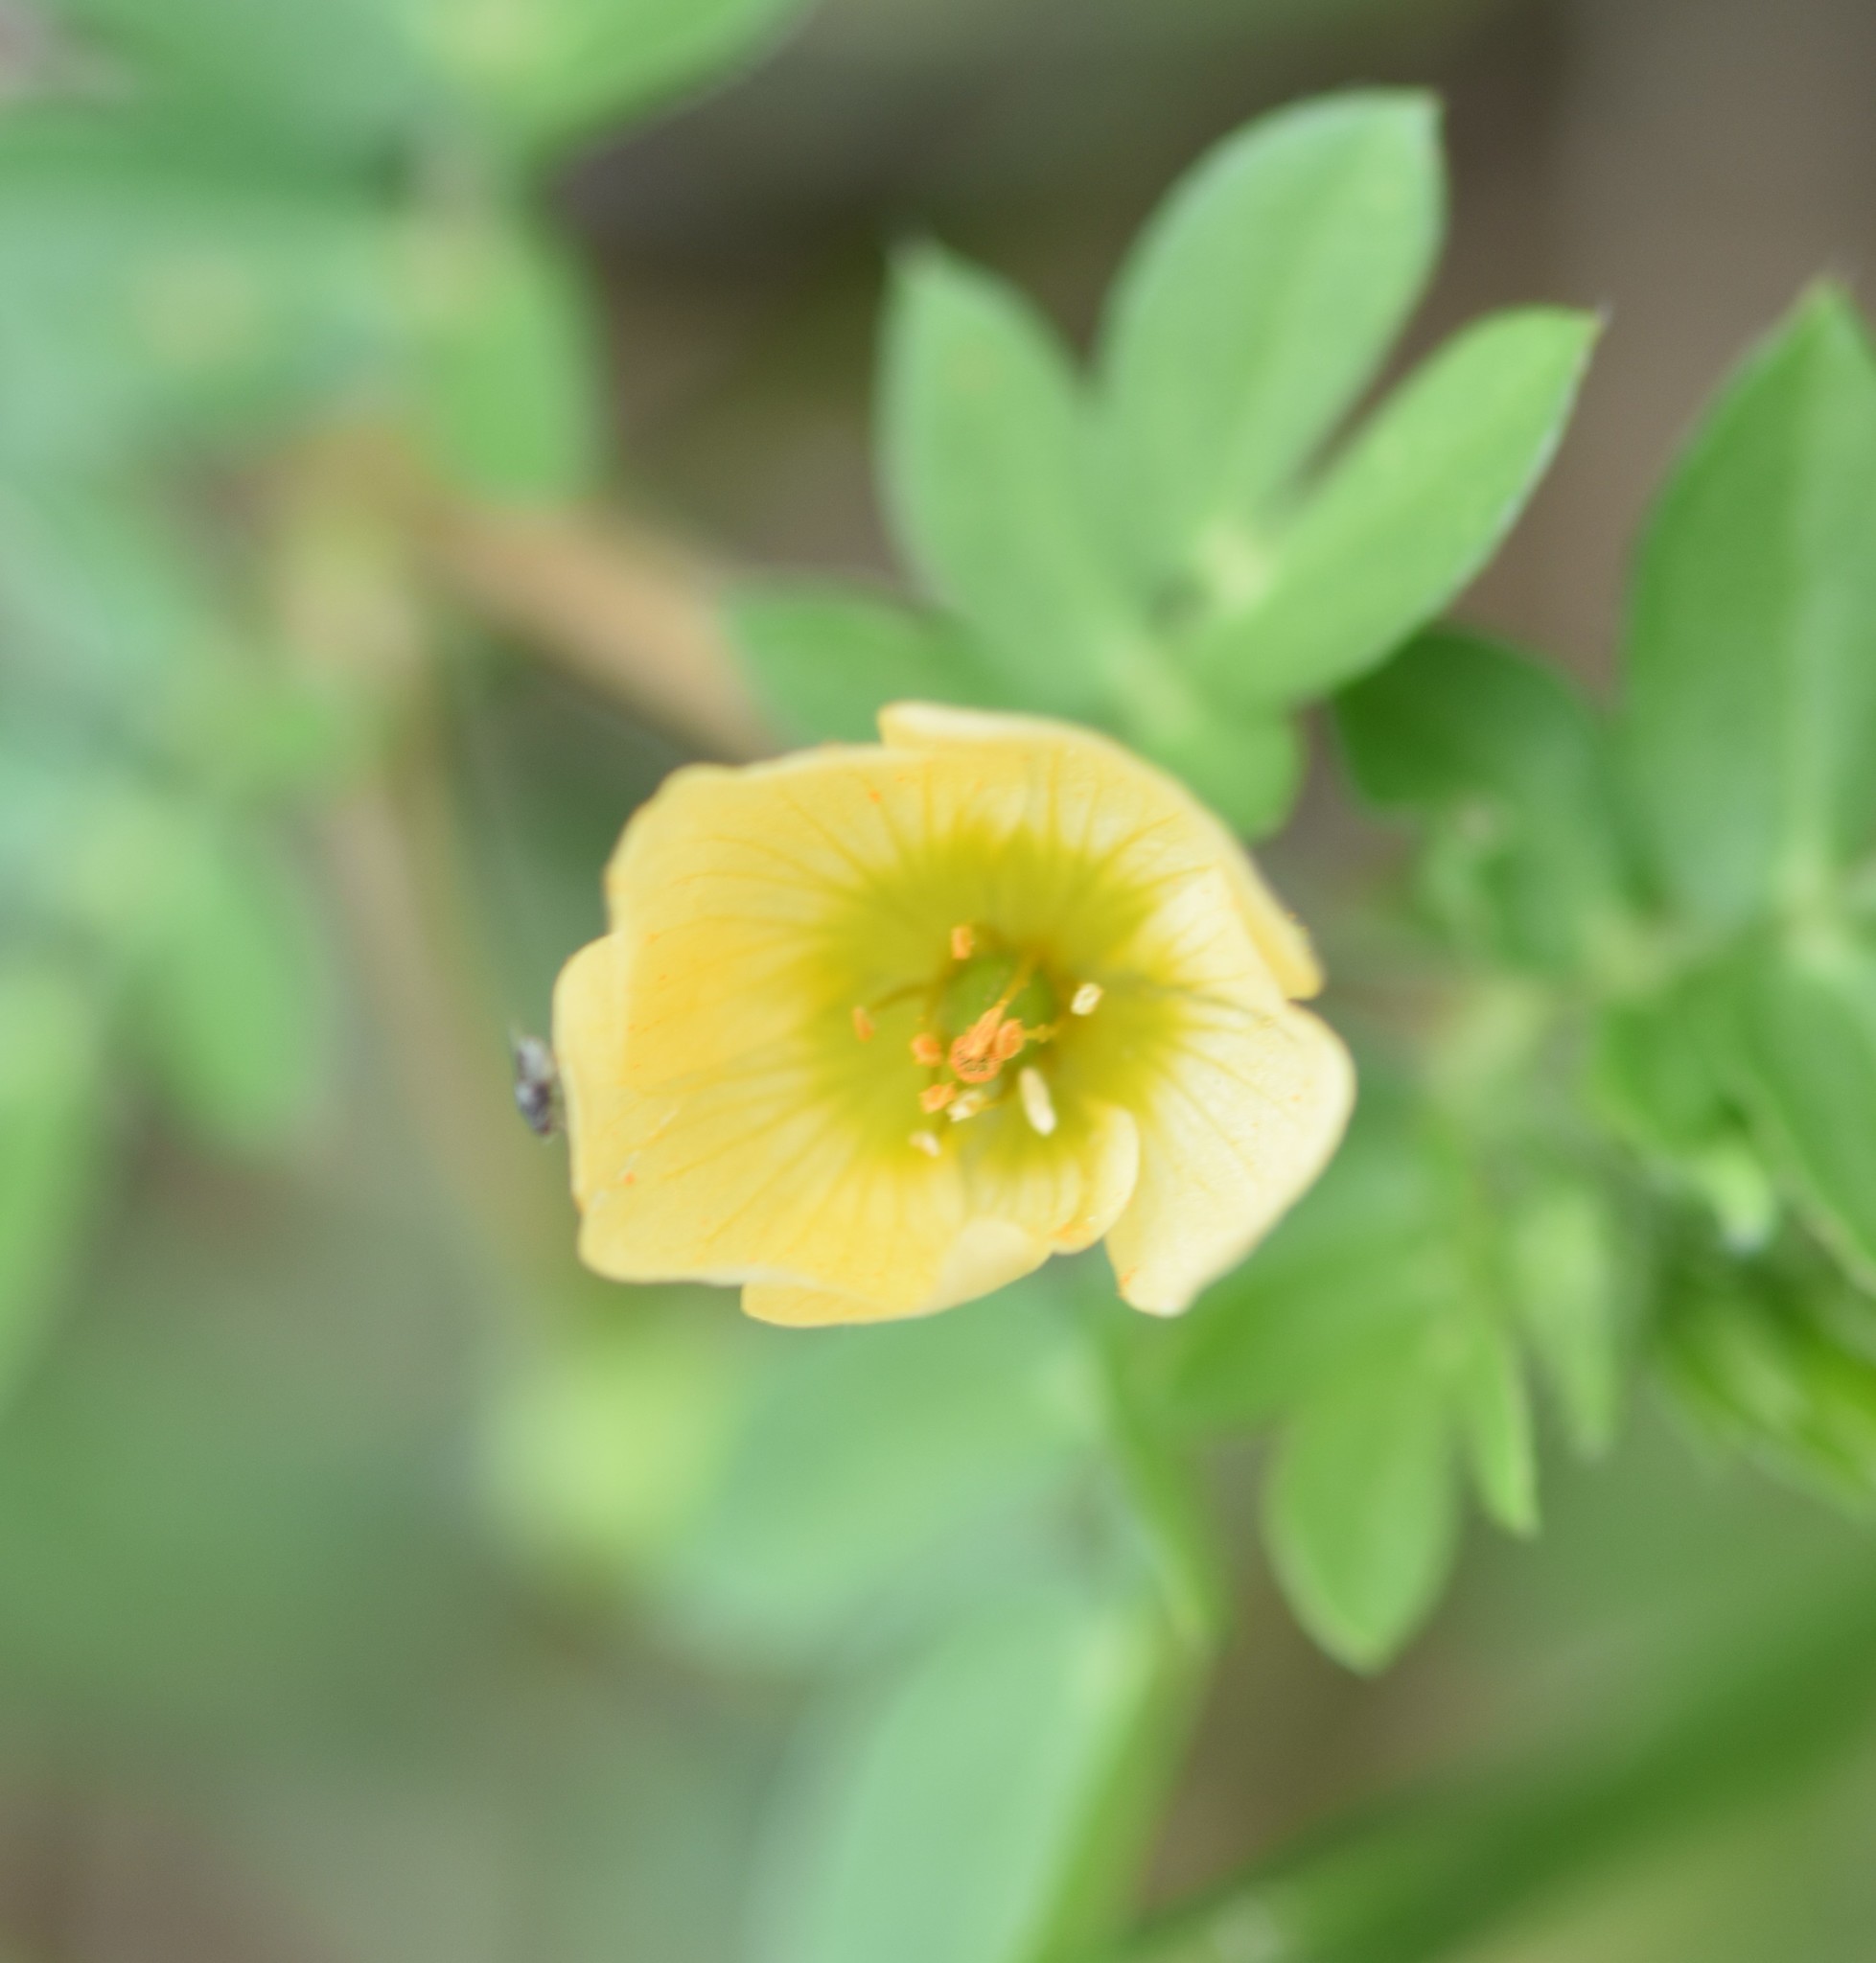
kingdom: Plantae
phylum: Tracheophyta
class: Magnoliopsida
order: Zygophyllales
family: Zygophyllaceae
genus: Kallstroemia
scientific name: Kallstroemia maxima
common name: Big caltropa
